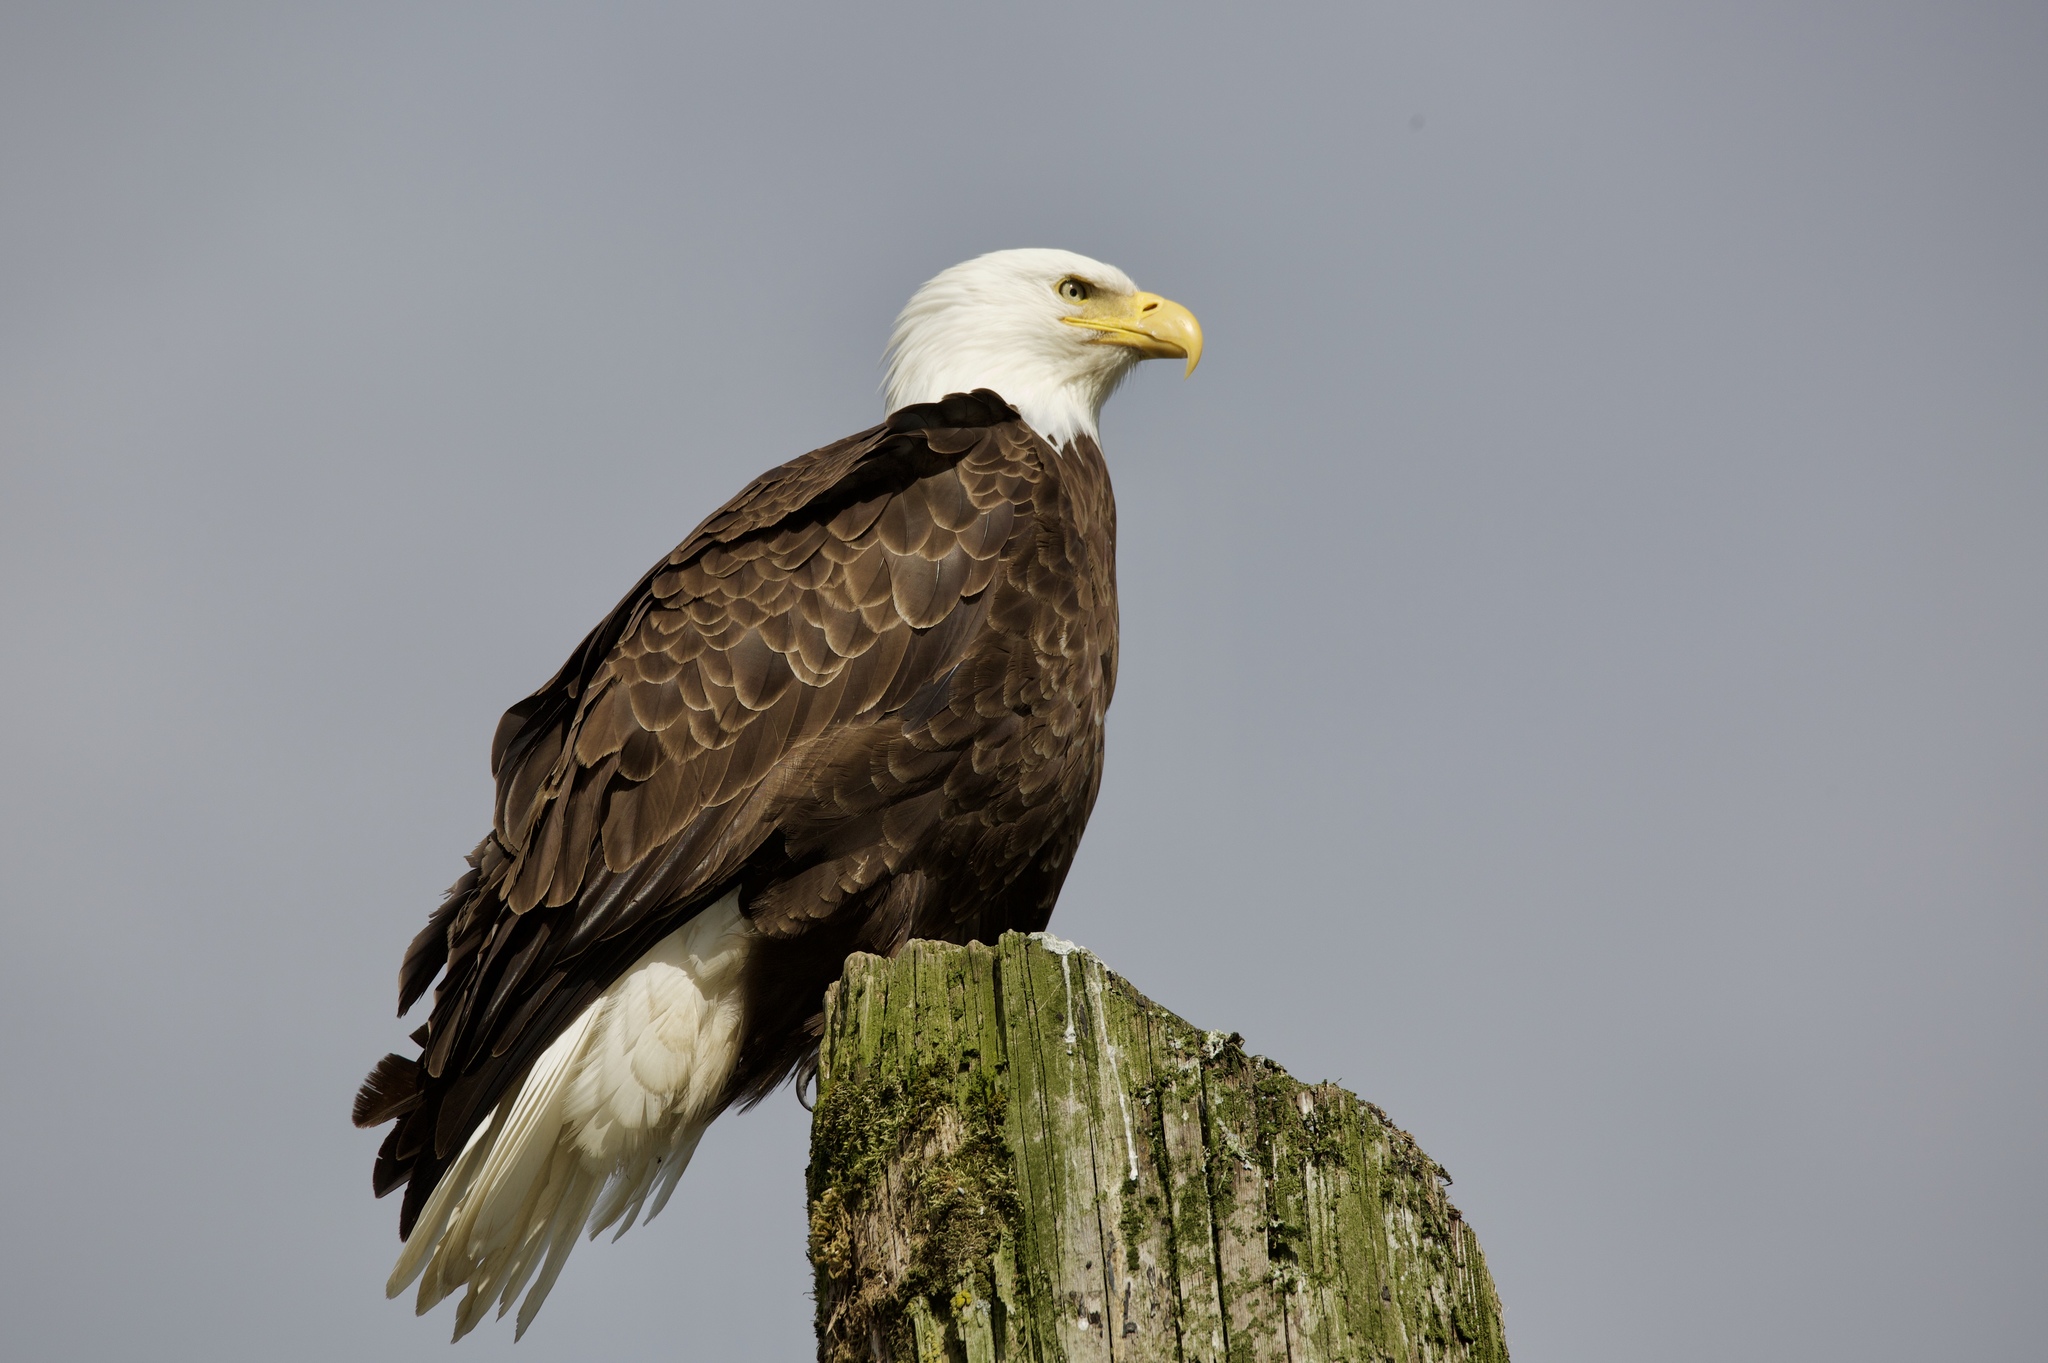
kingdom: Animalia
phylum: Chordata
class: Aves
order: Accipitriformes
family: Accipitridae
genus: Haliaeetus
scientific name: Haliaeetus leucocephalus
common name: Bald eagle
